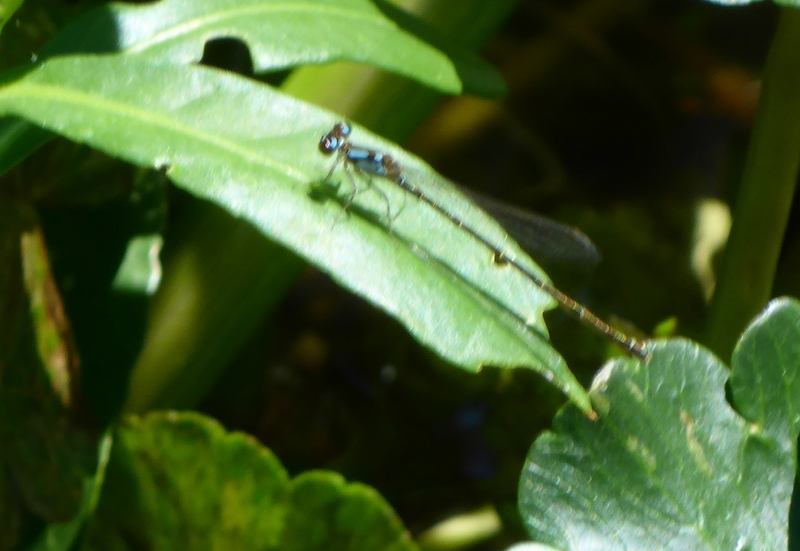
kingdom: Animalia
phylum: Arthropoda
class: Insecta
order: Odonata
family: Coenagrionidae
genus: Ischnura
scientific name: Ischnura posita
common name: Fragile forktail
